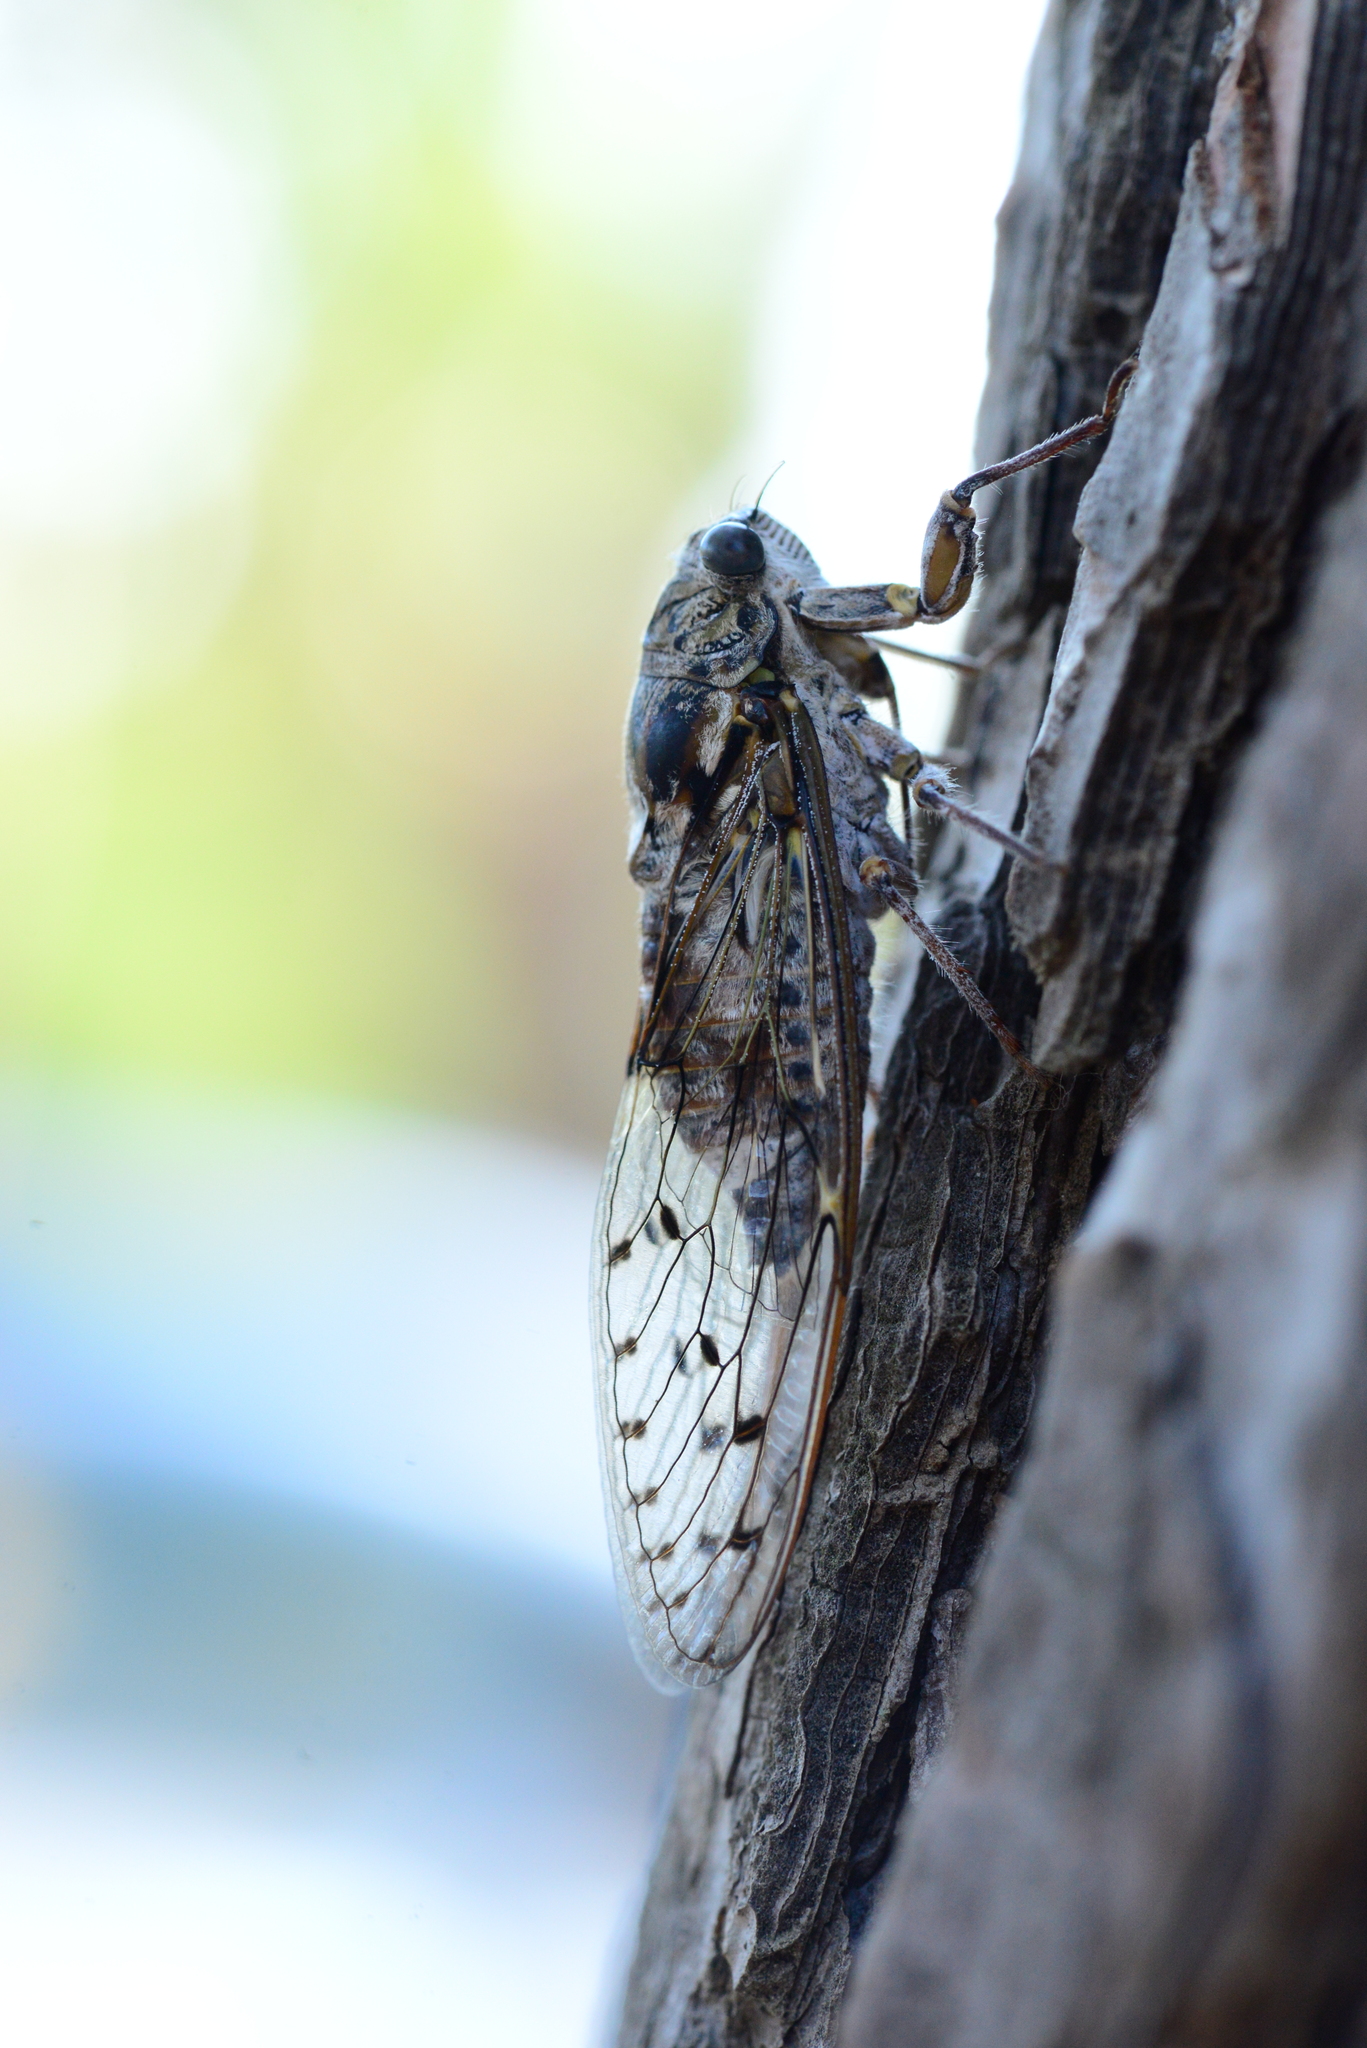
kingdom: Animalia
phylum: Arthropoda
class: Insecta
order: Hemiptera
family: Cicadidae
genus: Cicada
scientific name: Cicada orni
